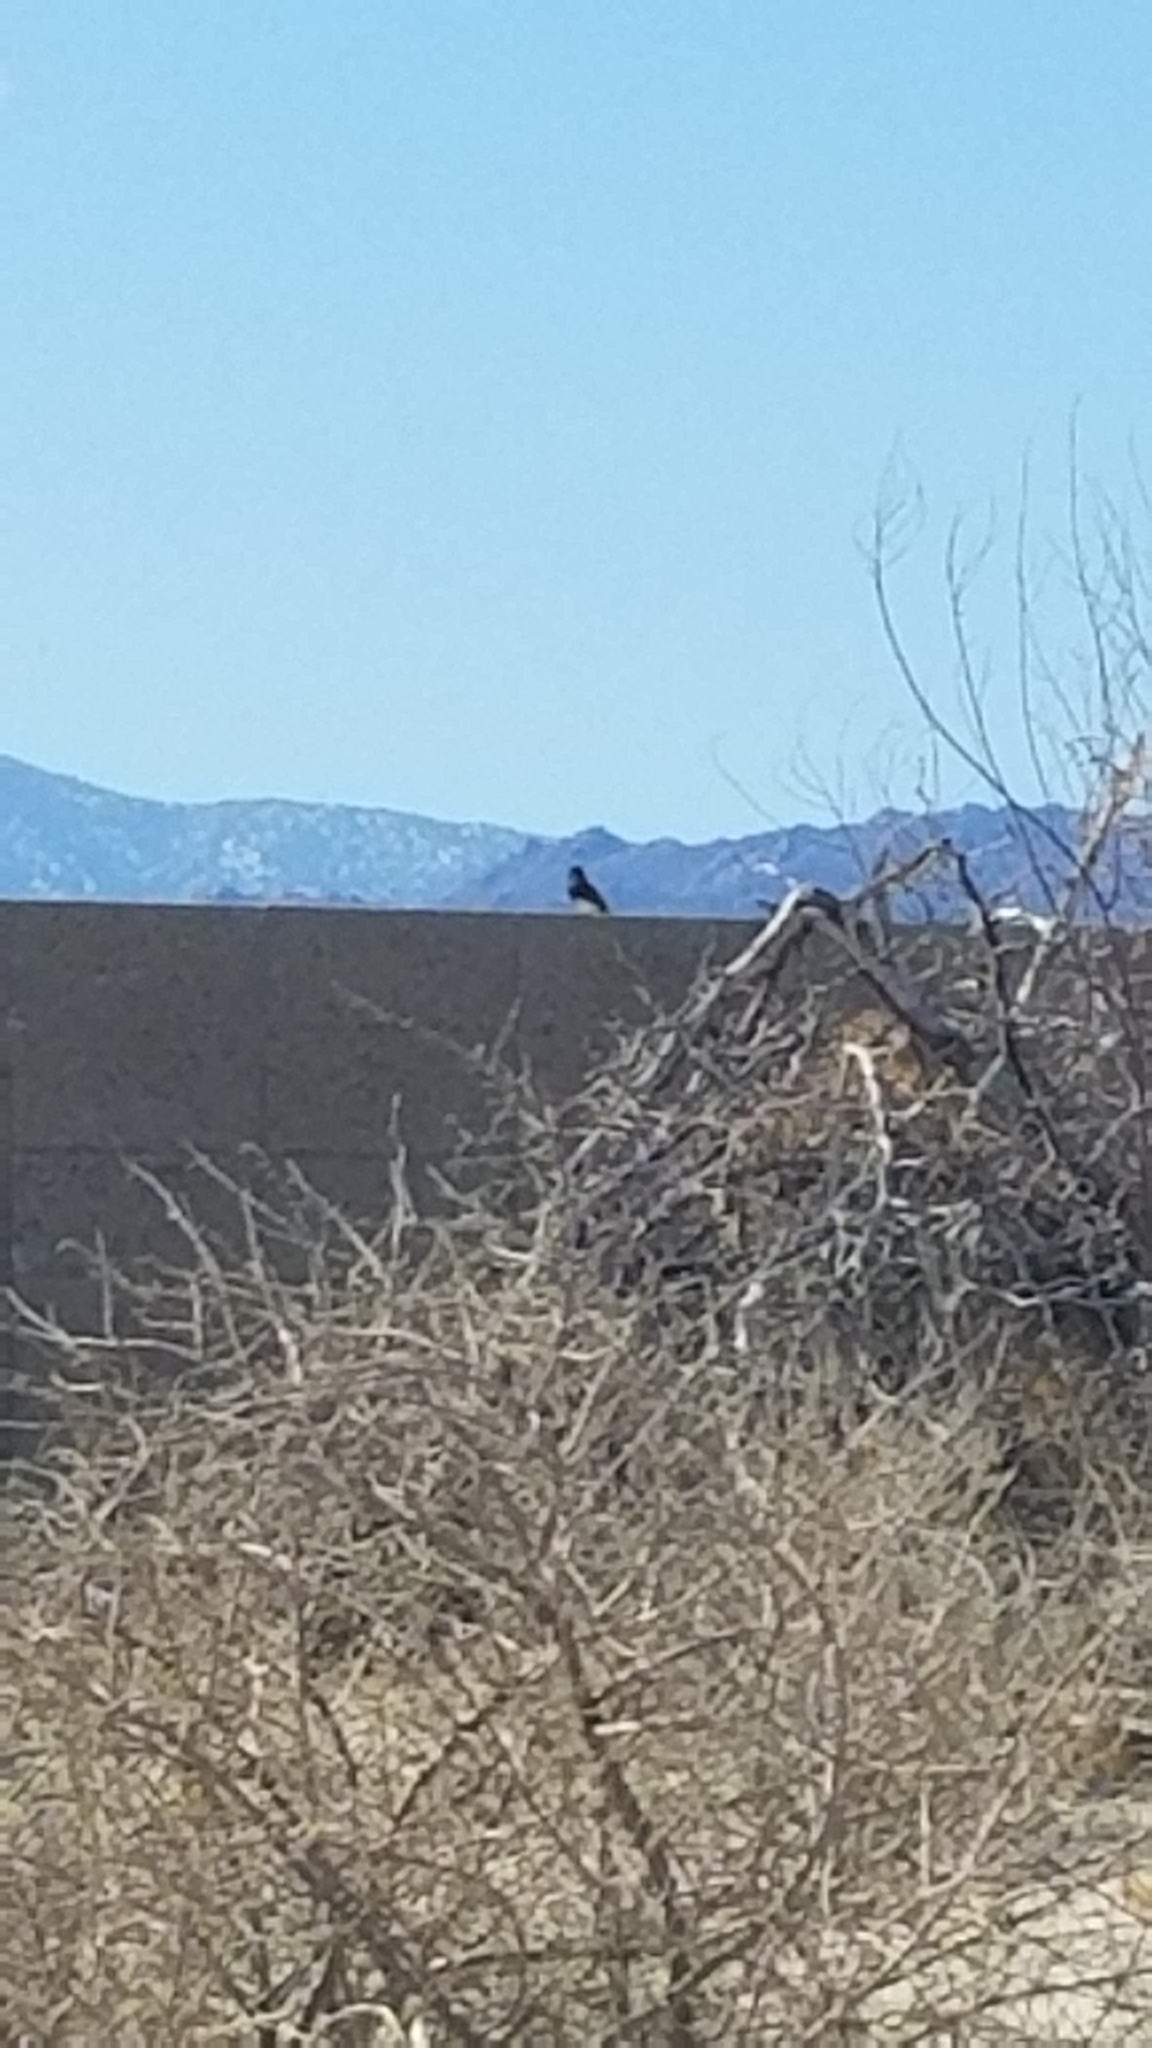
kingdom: Animalia
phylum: Chordata
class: Aves
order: Passeriformes
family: Tyrannidae
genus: Sayornis
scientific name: Sayornis nigricans
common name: Black phoebe
